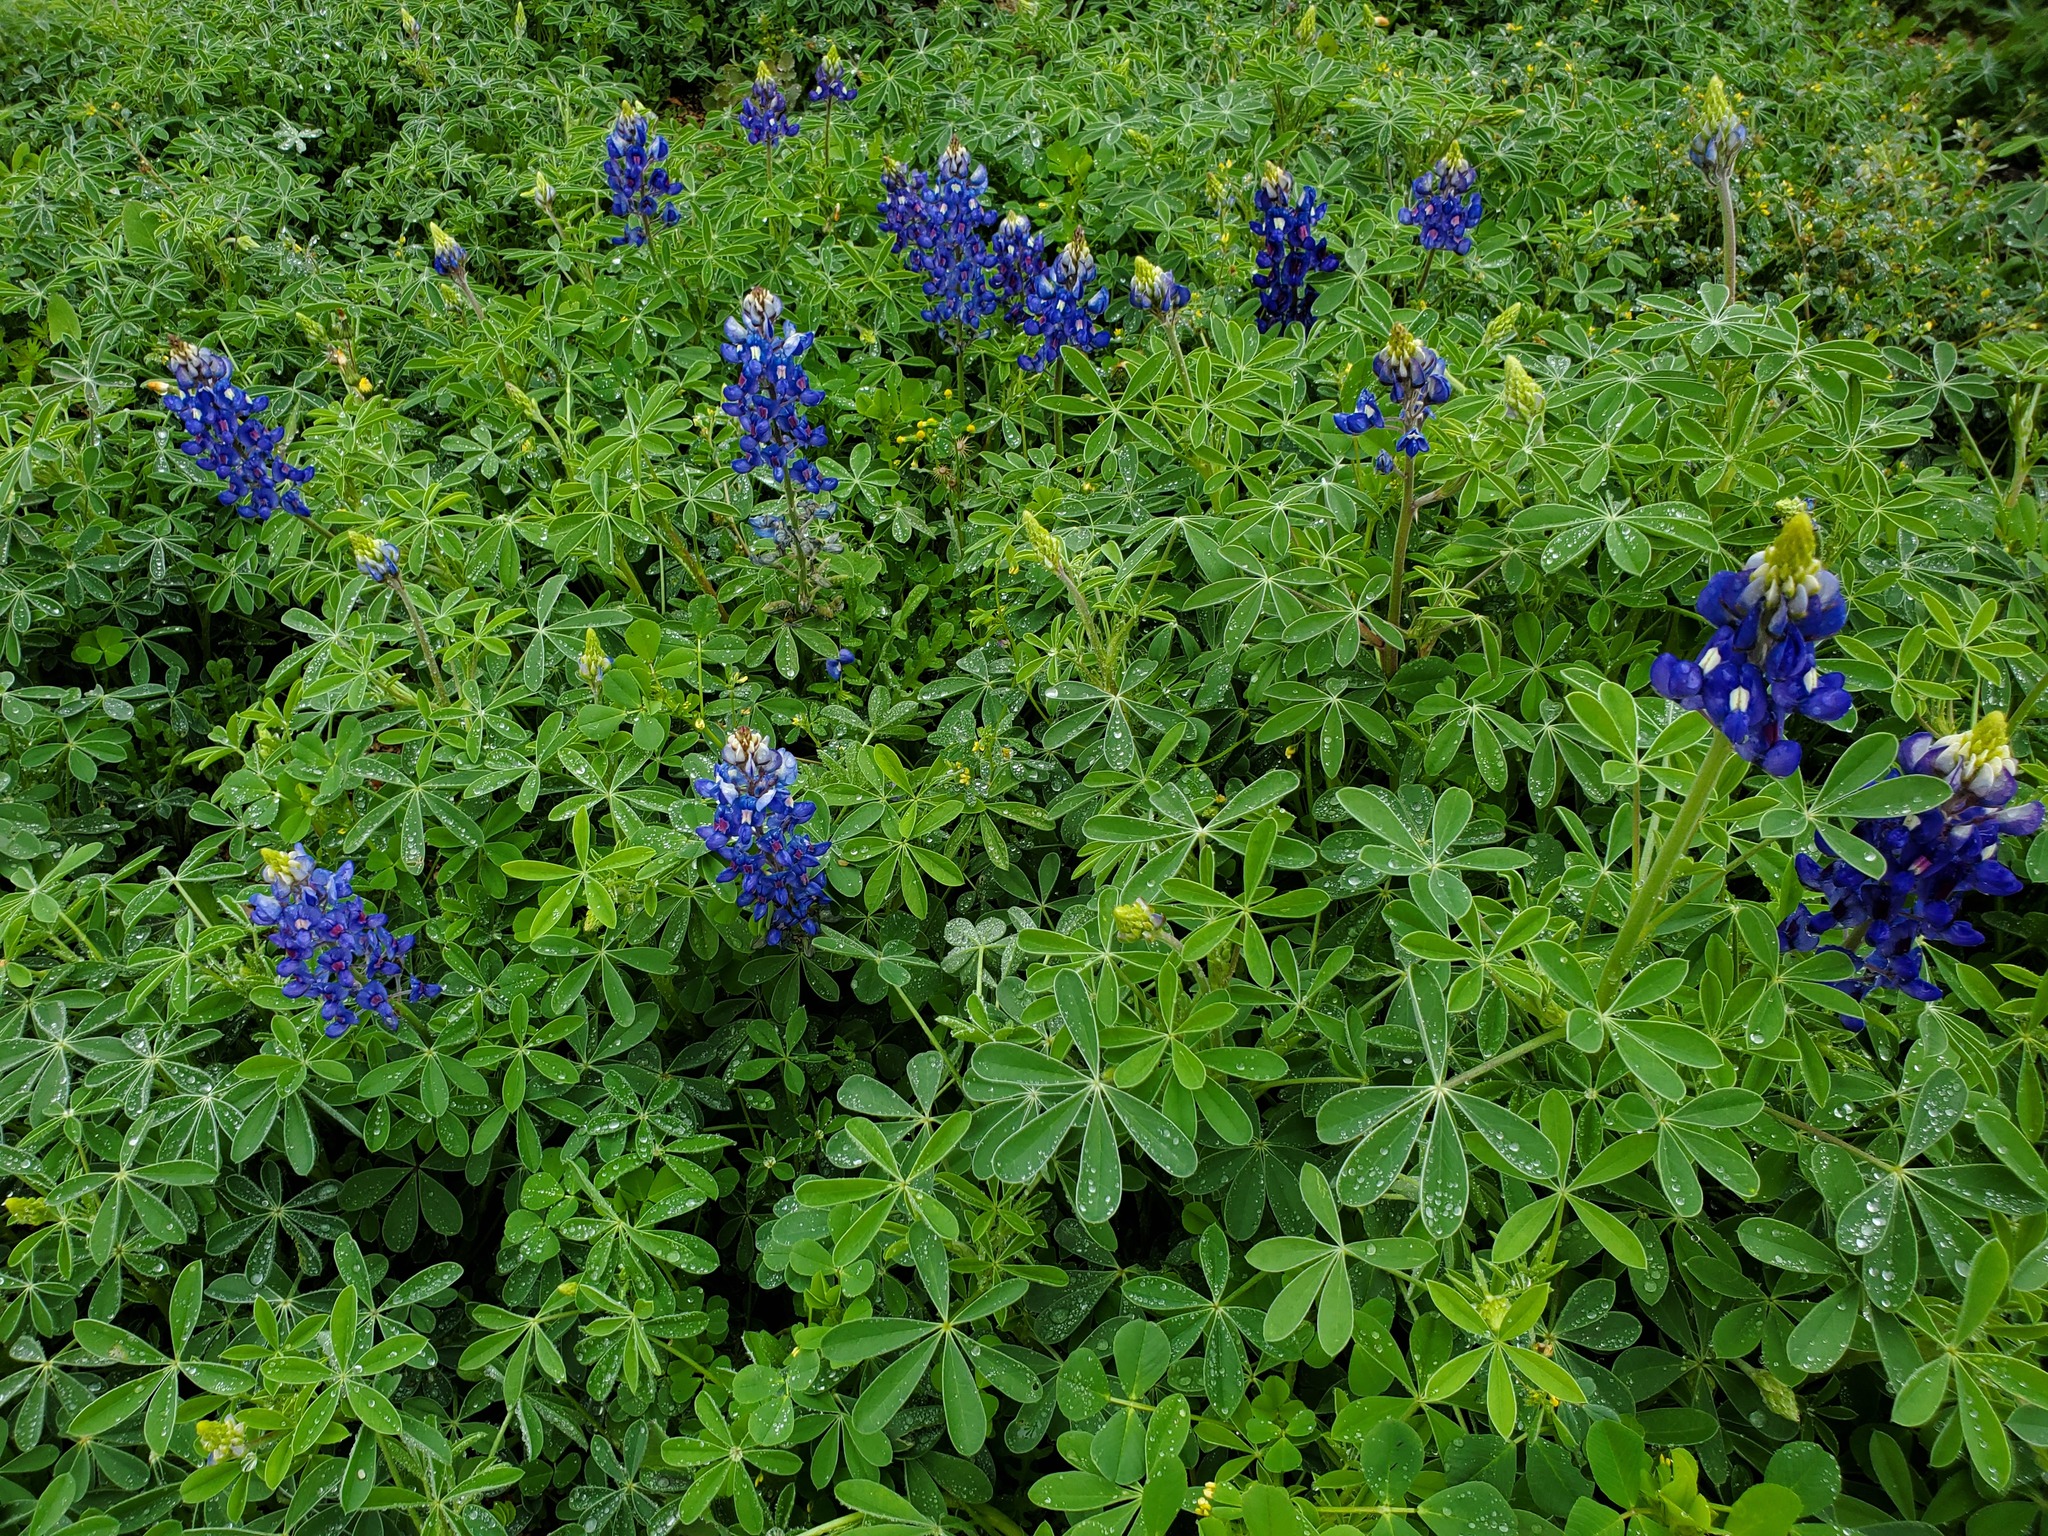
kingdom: Plantae
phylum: Tracheophyta
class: Magnoliopsida
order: Fabales
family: Fabaceae
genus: Lupinus
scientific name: Lupinus texensis
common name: Texas bluebonnet
